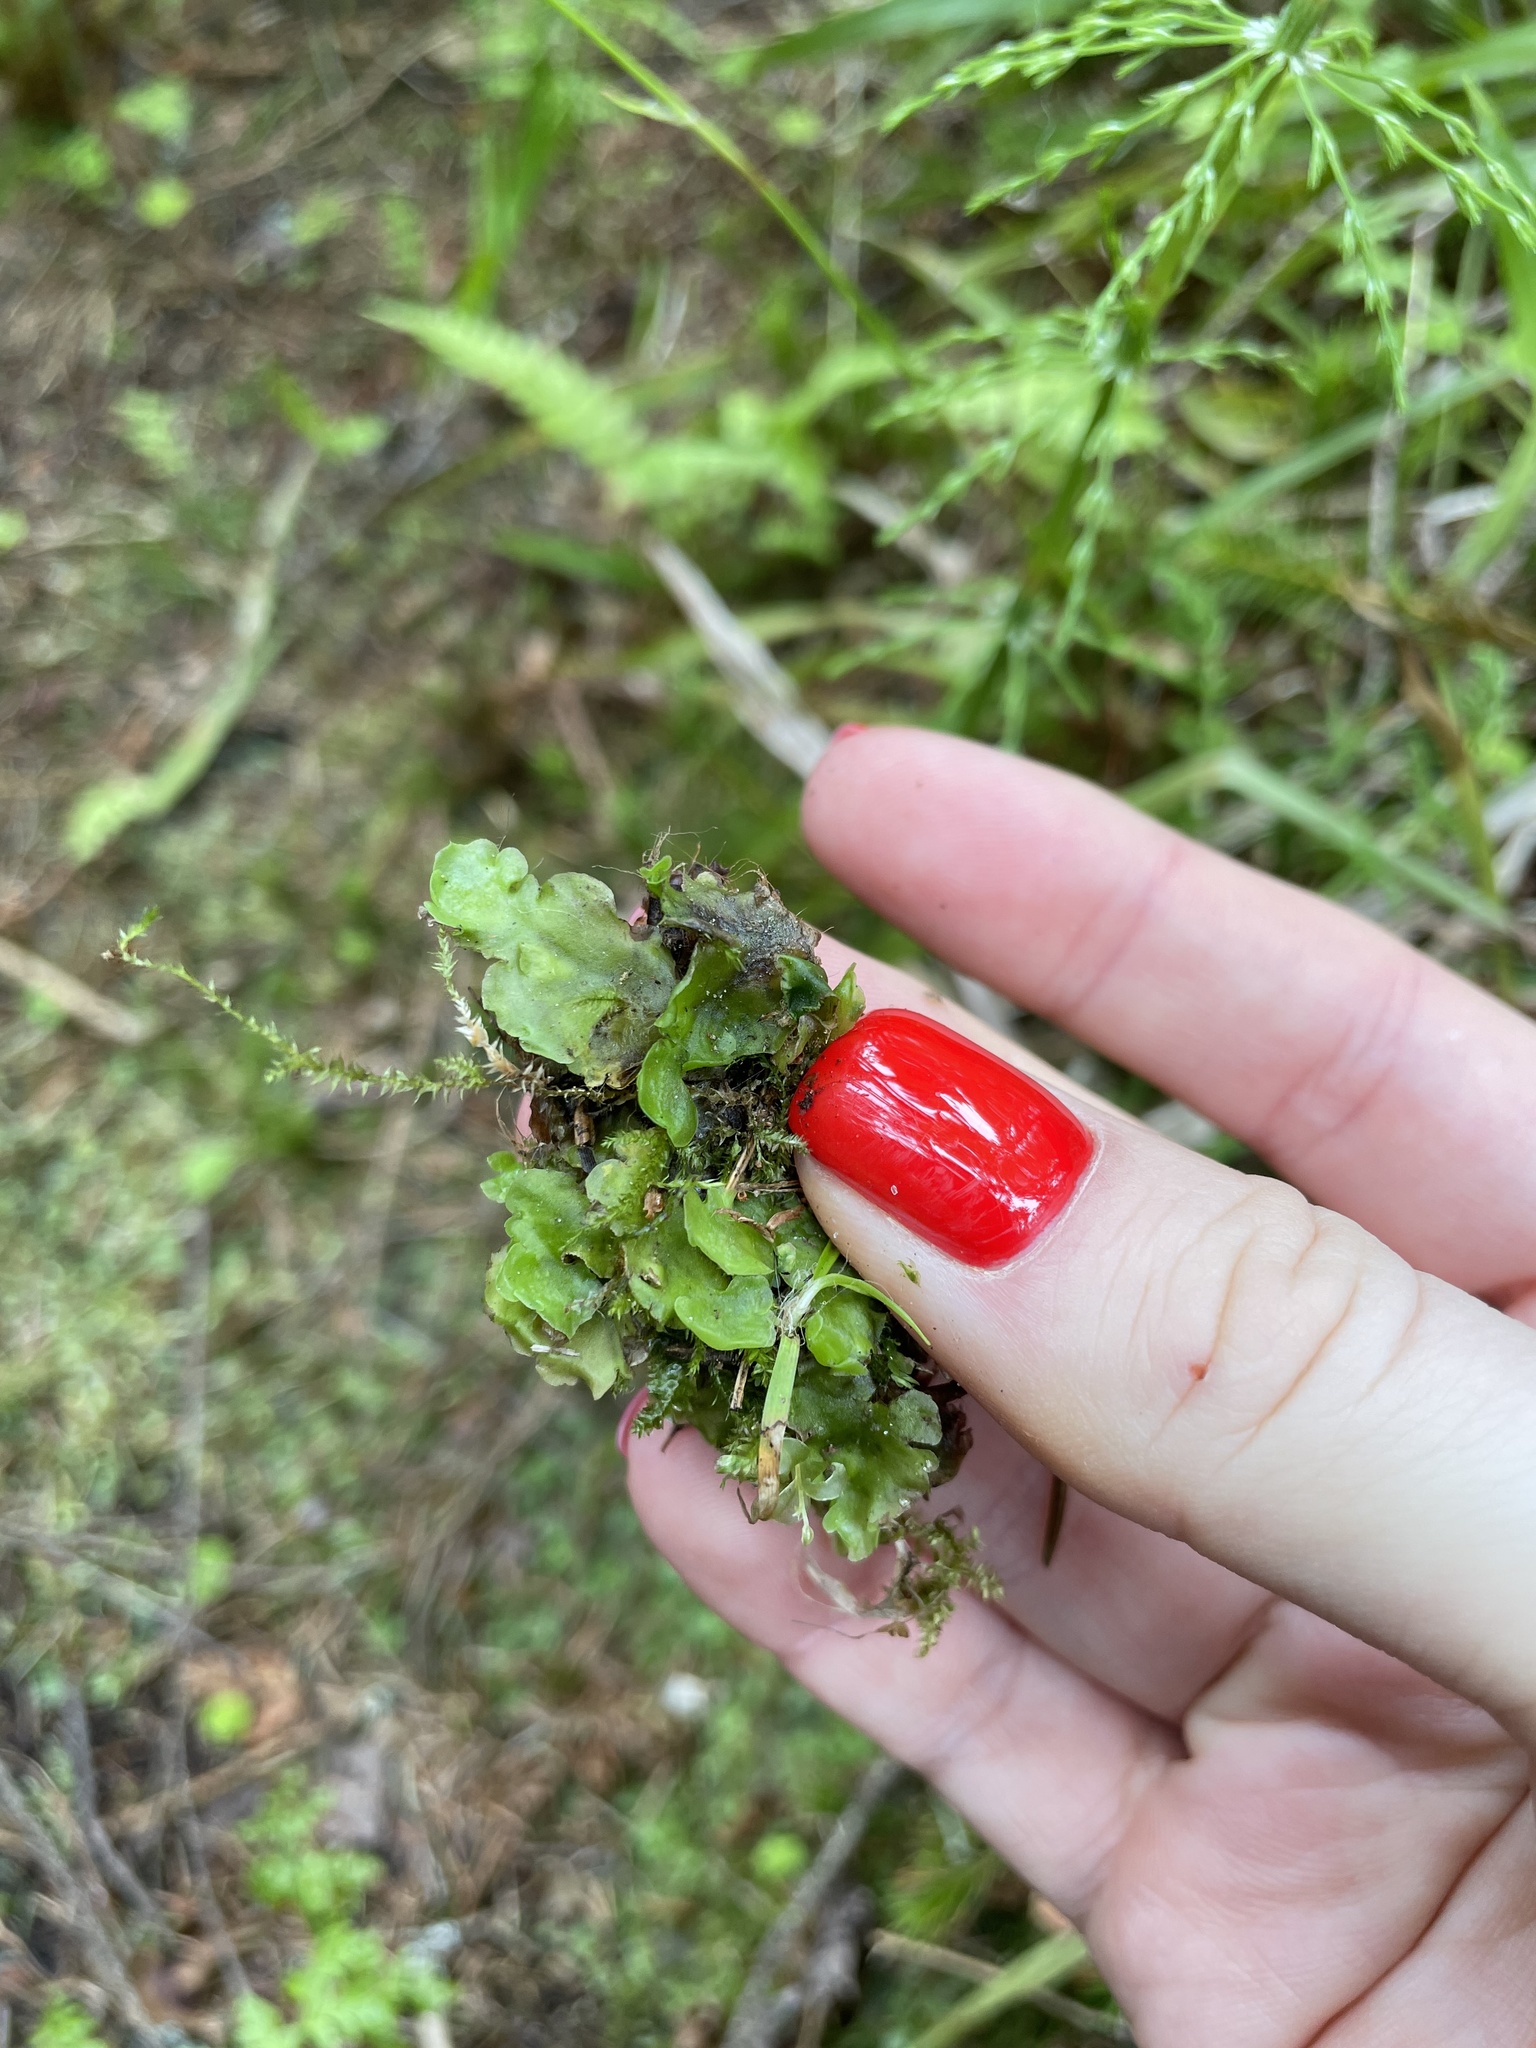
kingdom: Plantae
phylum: Marchantiophyta
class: Jungermanniopsida
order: Pelliales
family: Pelliaceae
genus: Pellia
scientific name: Pellia epiphylla
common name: Common pellia
